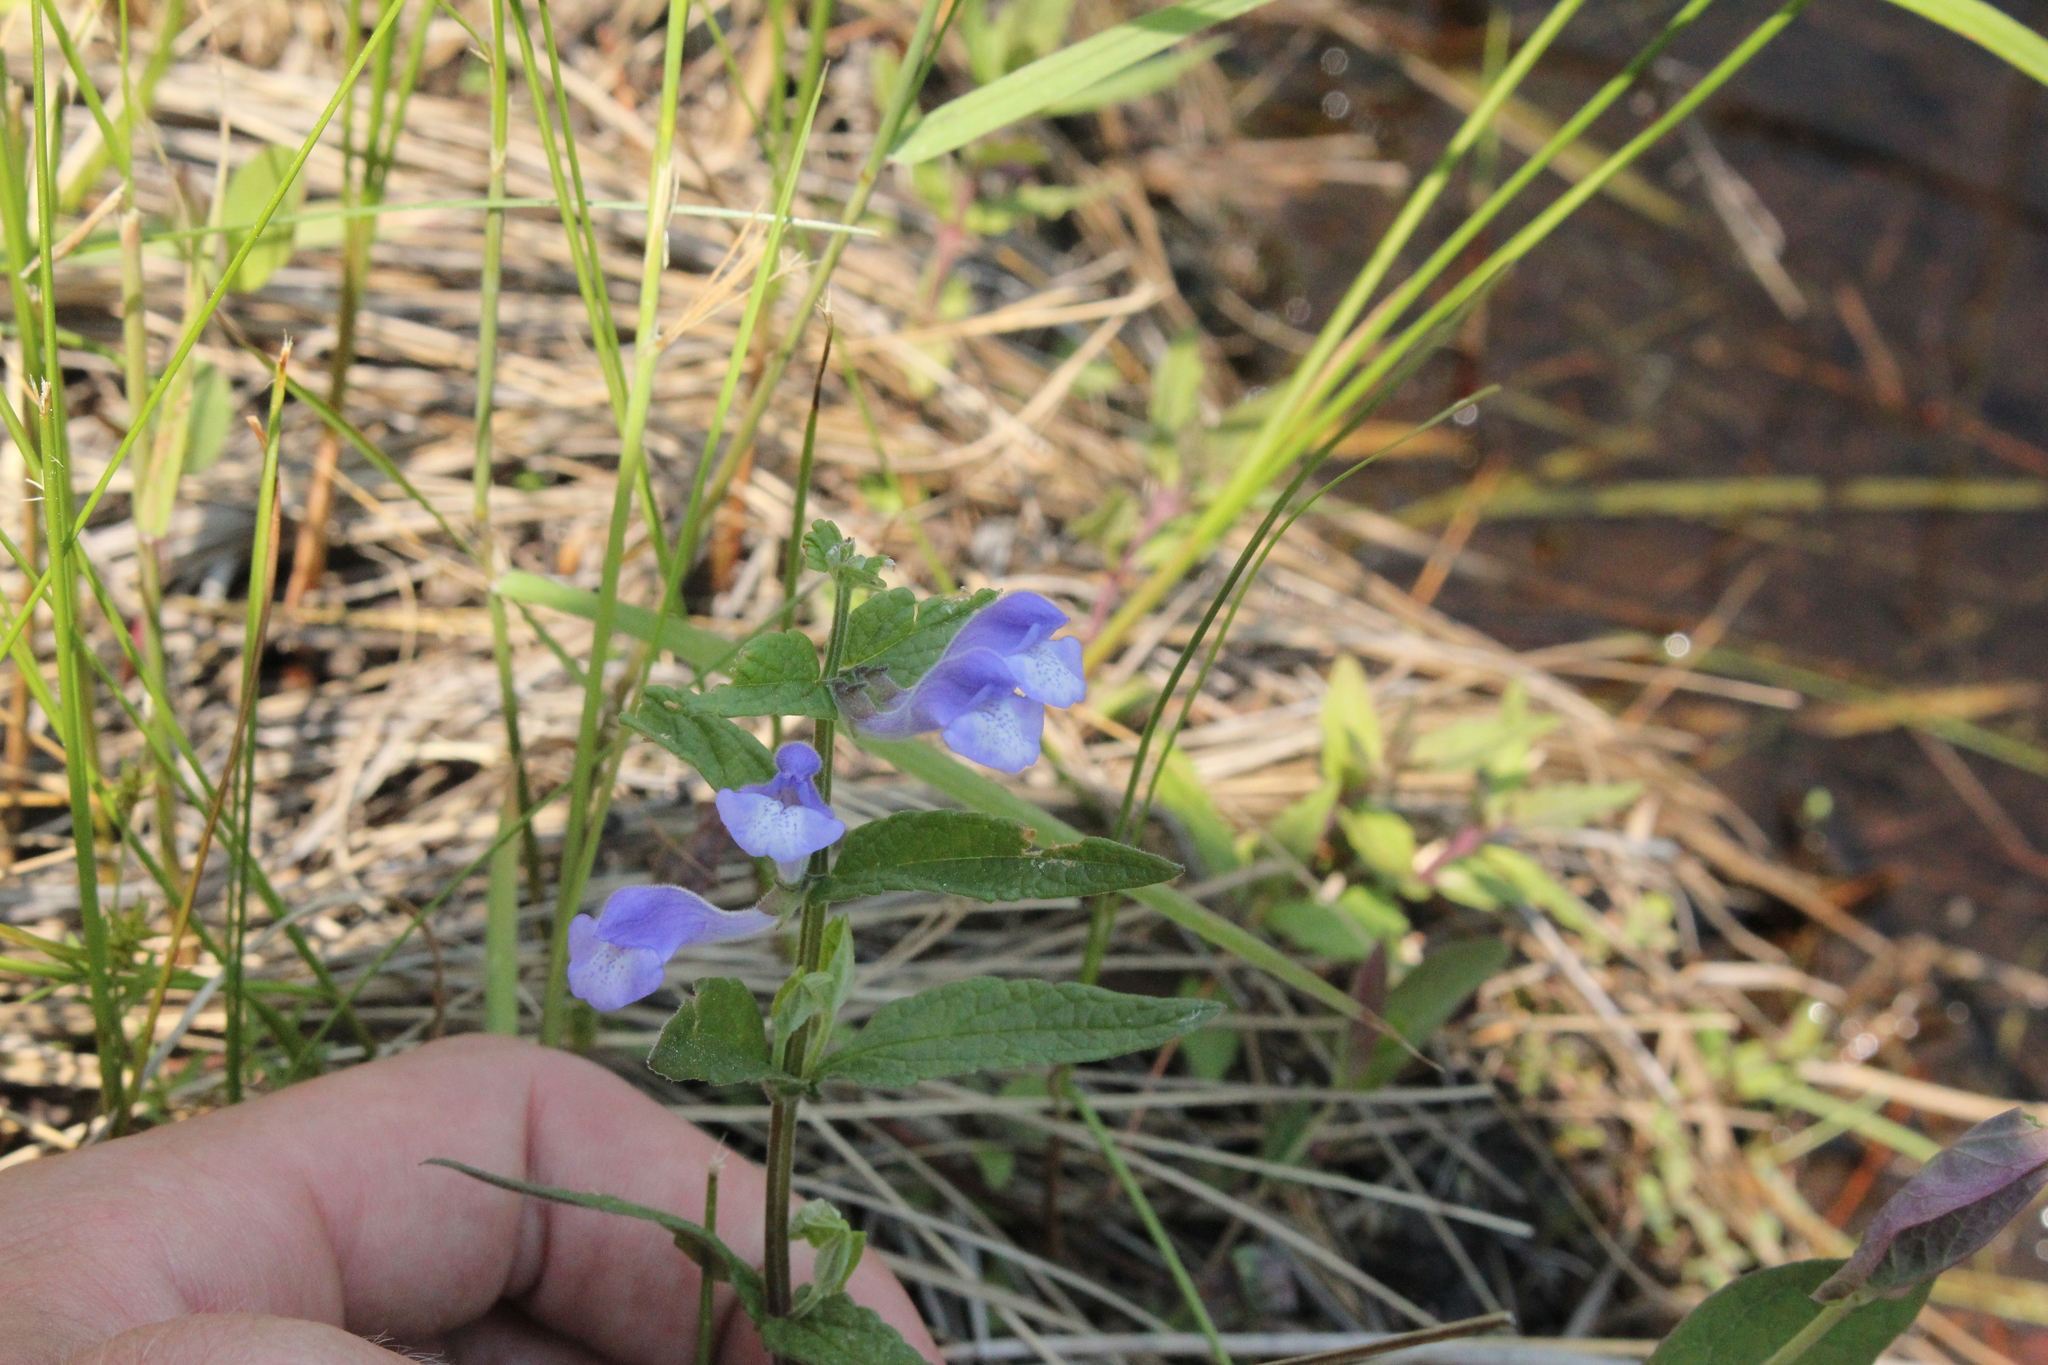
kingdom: Plantae
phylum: Tracheophyta
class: Magnoliopsida
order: Lamiales
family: Lamiaceae
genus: Scutellaria
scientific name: Scutellaria galericulata
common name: Skullcap
